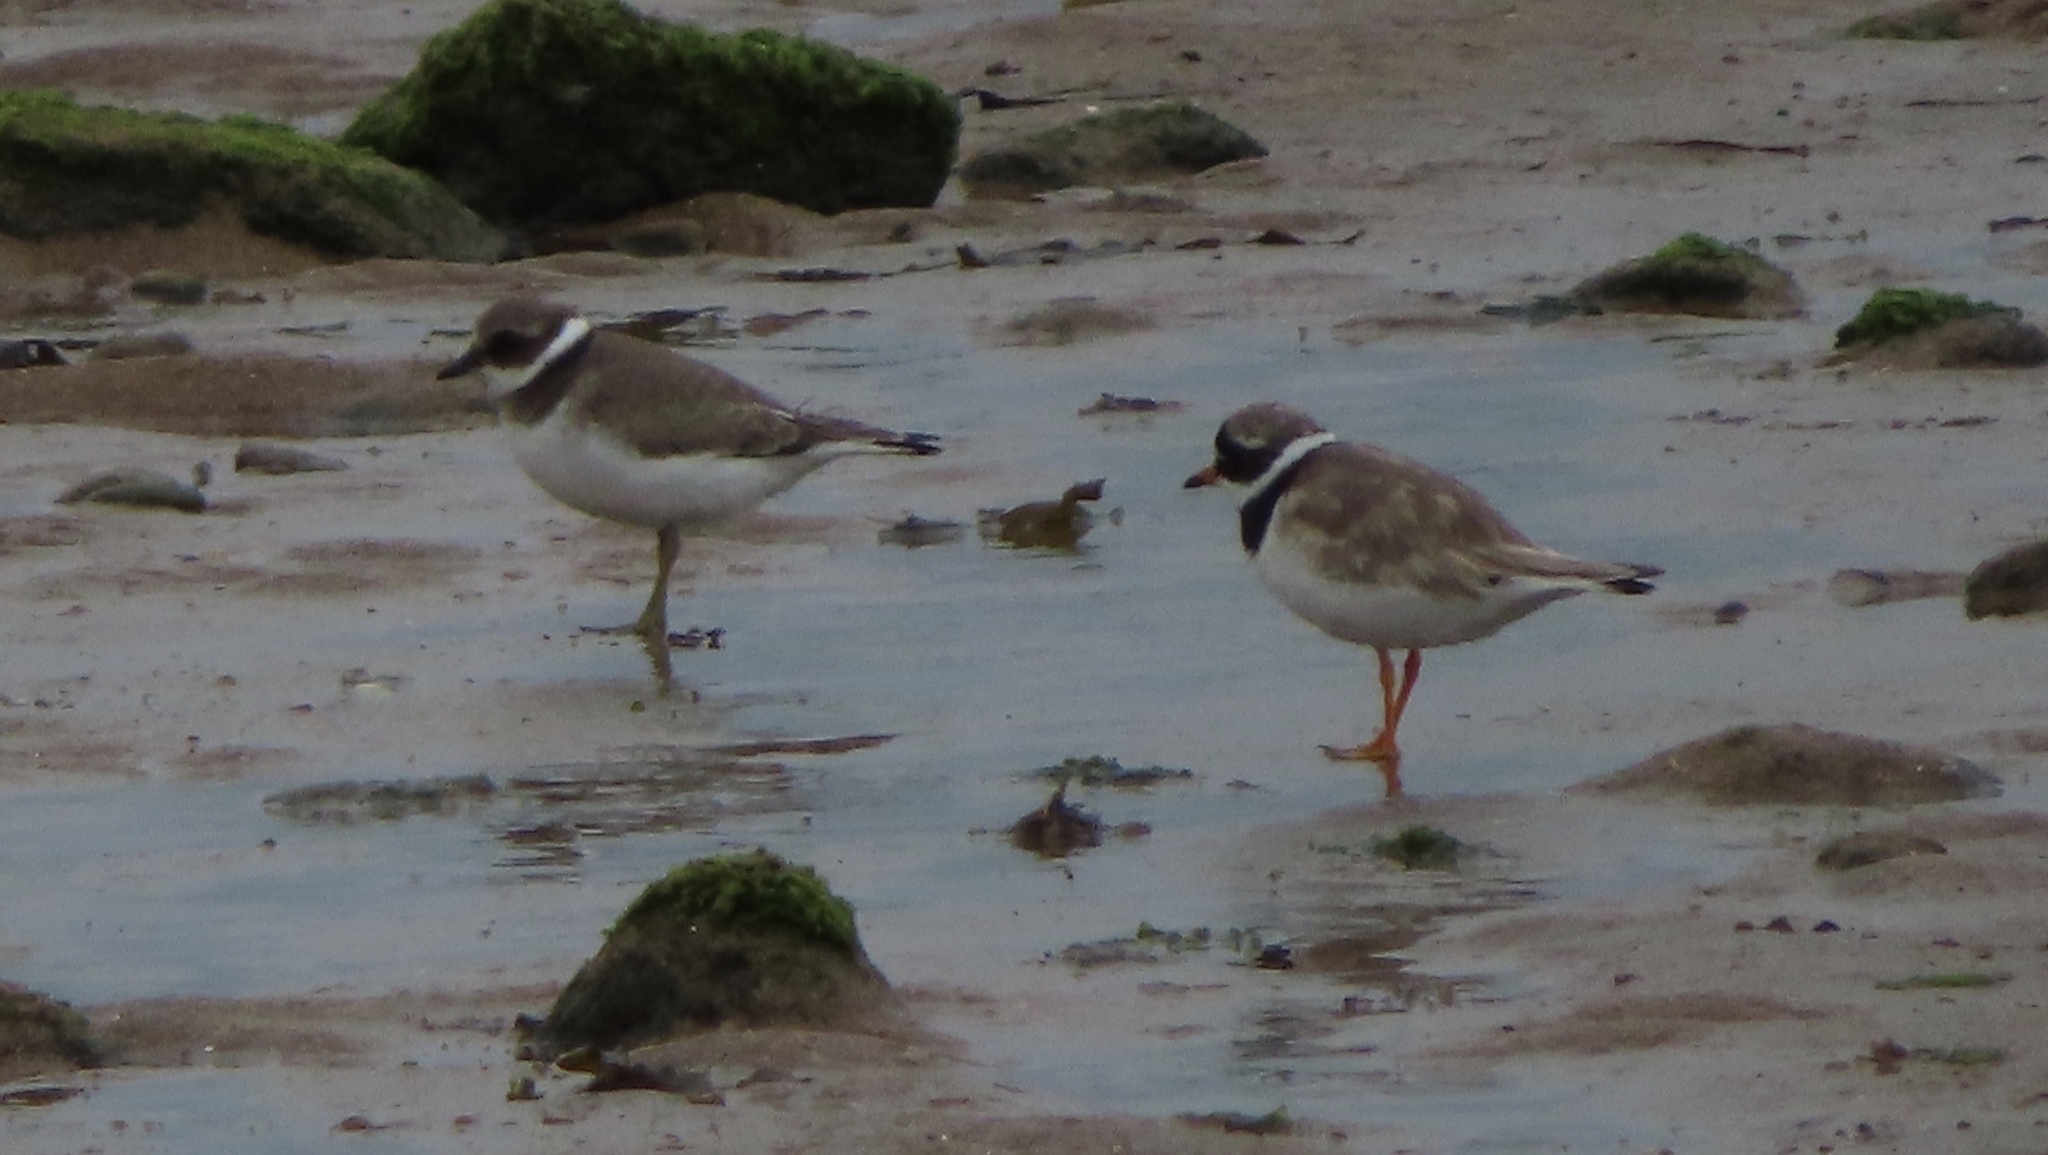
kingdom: Animalia
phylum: Chordata
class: Aves
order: Charadriiformes
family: Charadriidae
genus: Charadrius
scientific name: Charadrius hiaticula
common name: Common ringed plover
